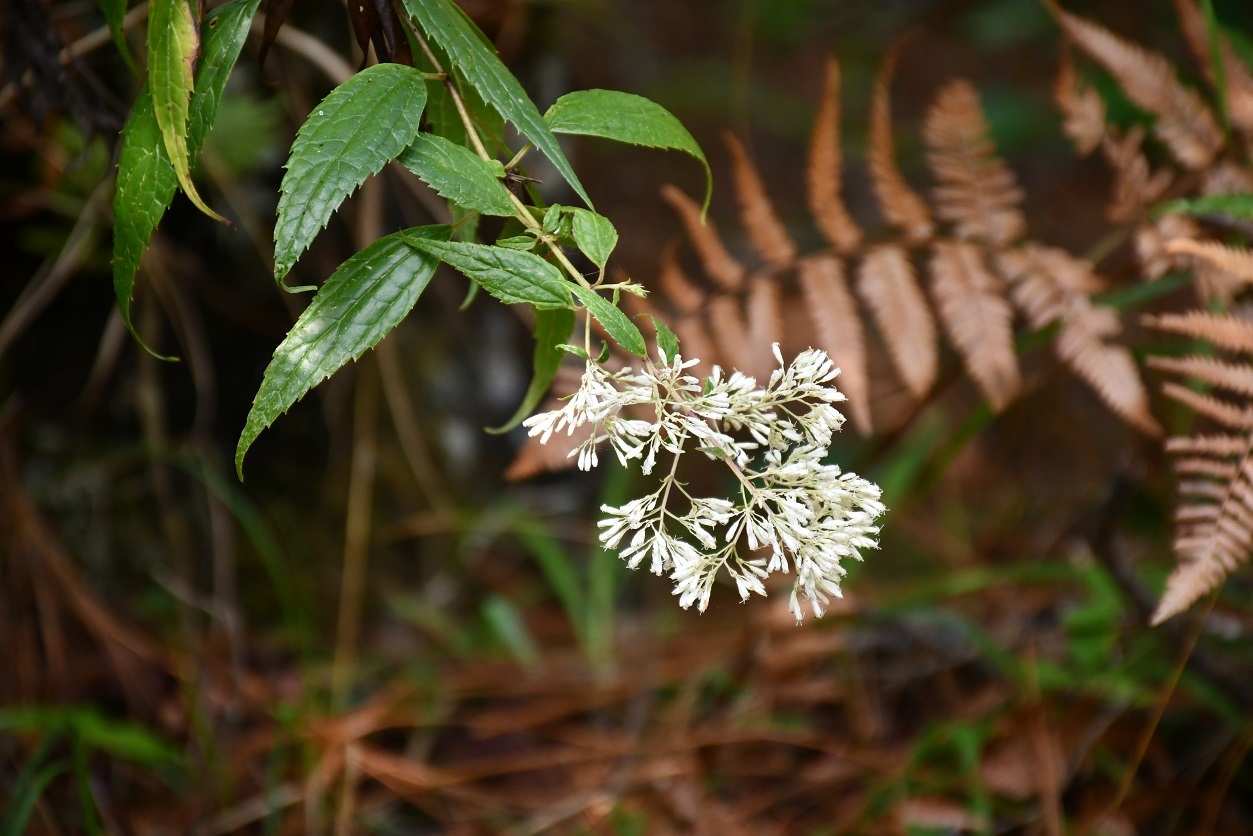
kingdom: Plantae
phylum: Tracheophyta
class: Magnoliopsida
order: Asterales
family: Asteraceae
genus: Fleischmanniopsis
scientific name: Fleischmanniopsis leucocephala
